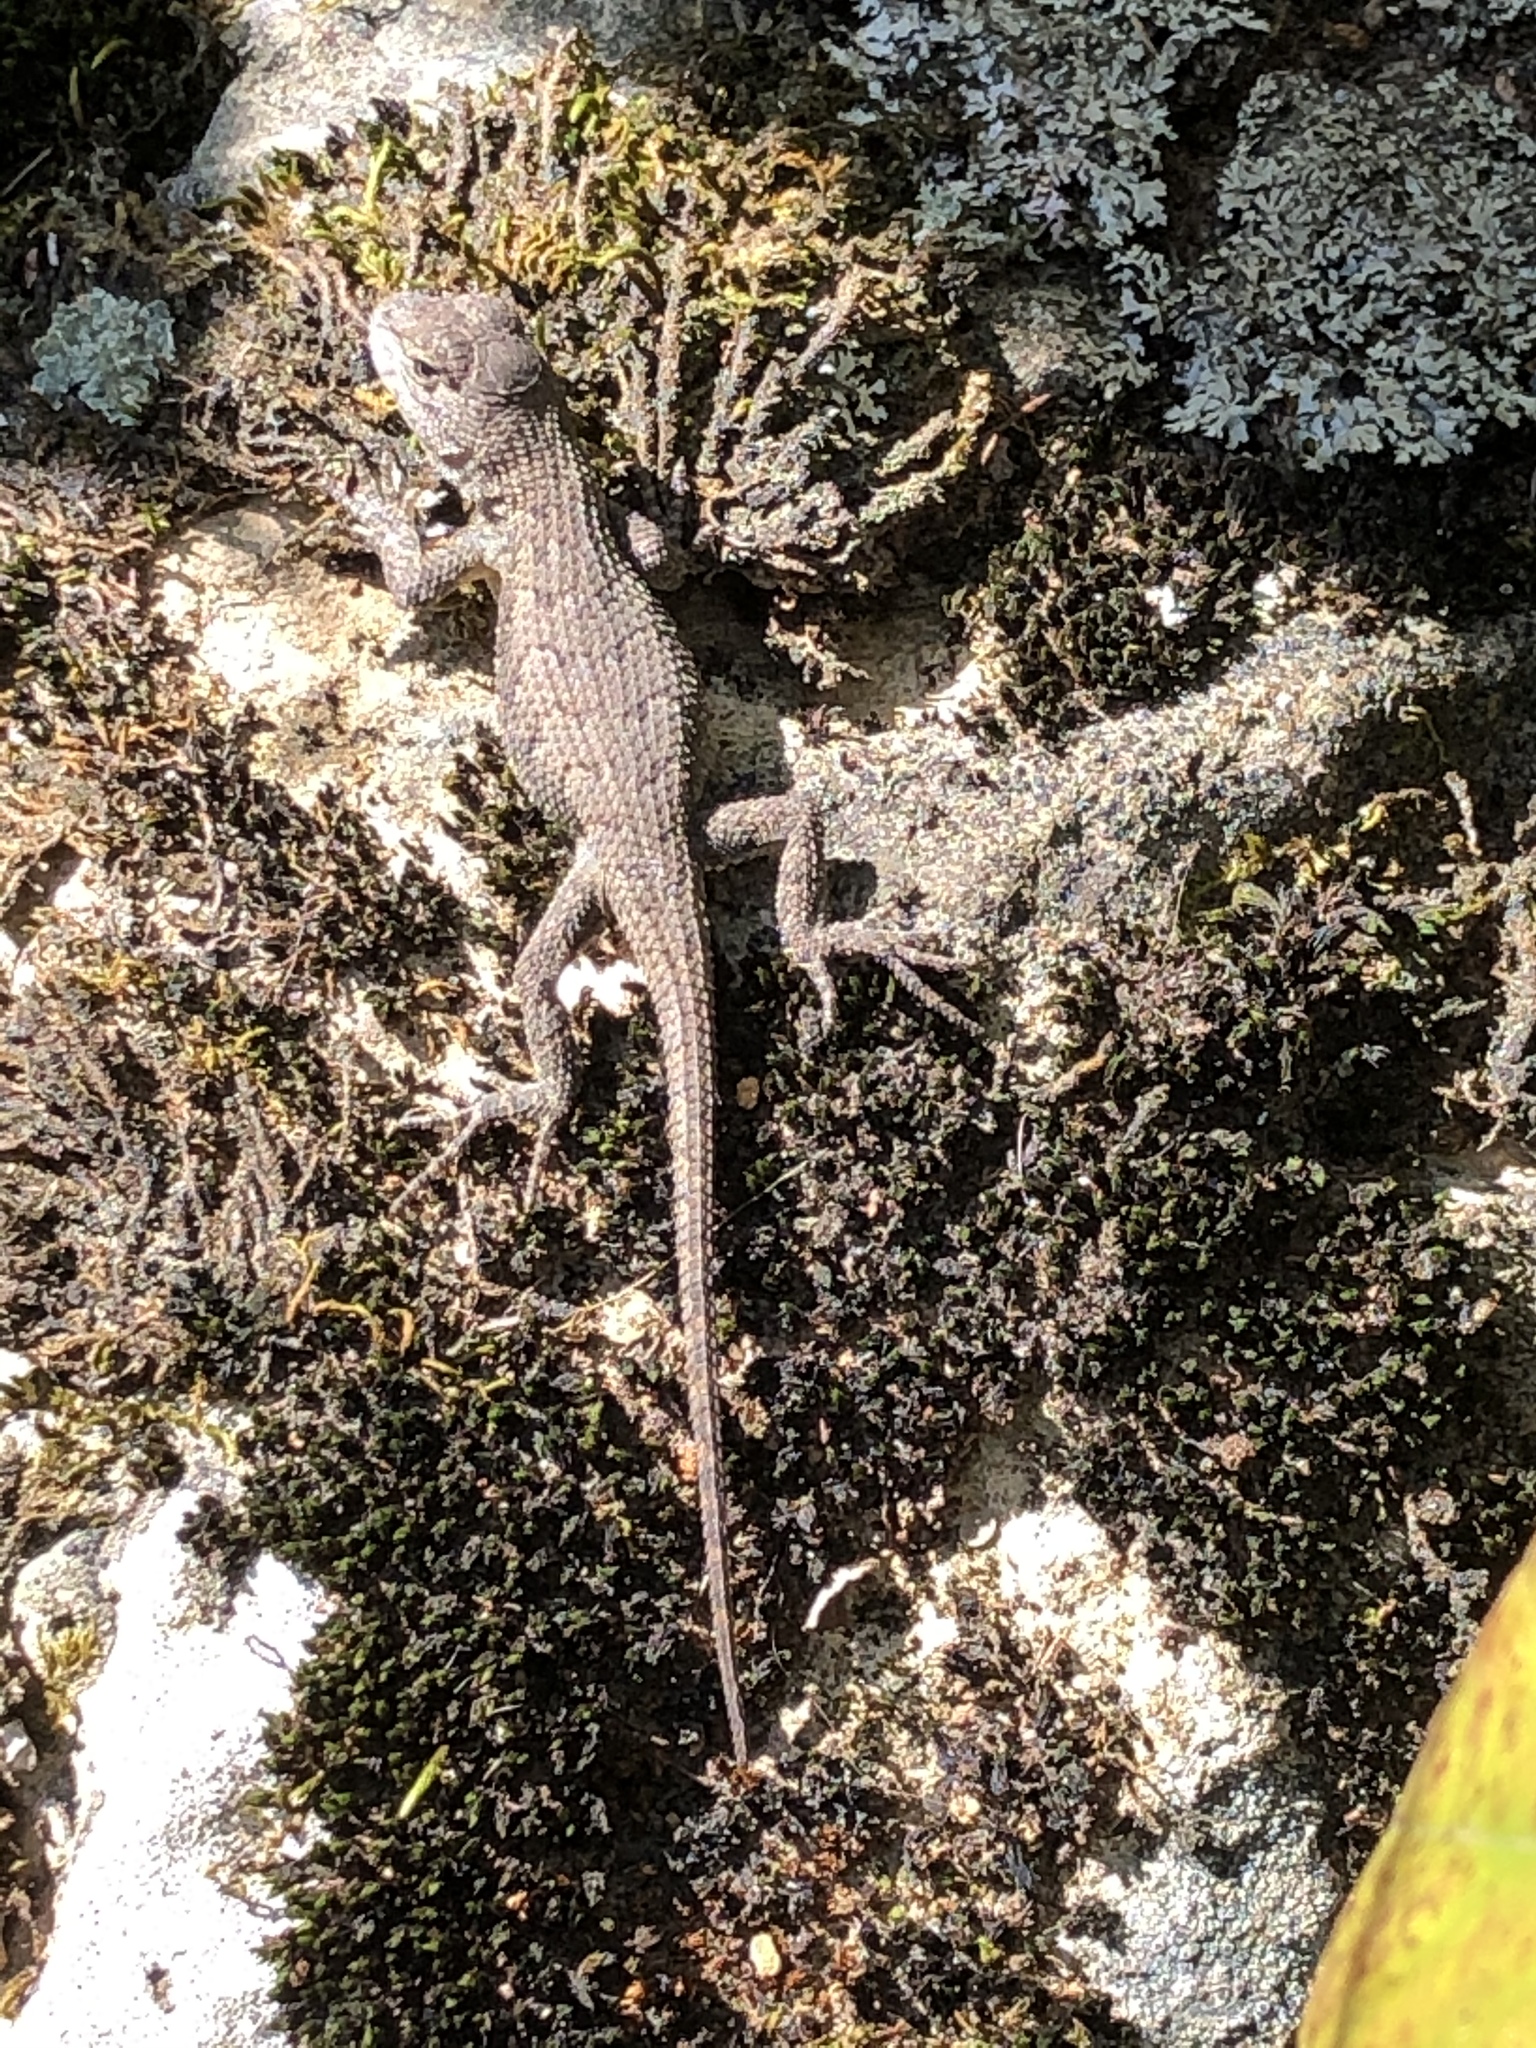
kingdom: Animalia
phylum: Chordata
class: Squamata
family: Phrynosomatidae
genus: Sceloporus
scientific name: Sceloporus consobrinus
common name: Southern prairie lizard
